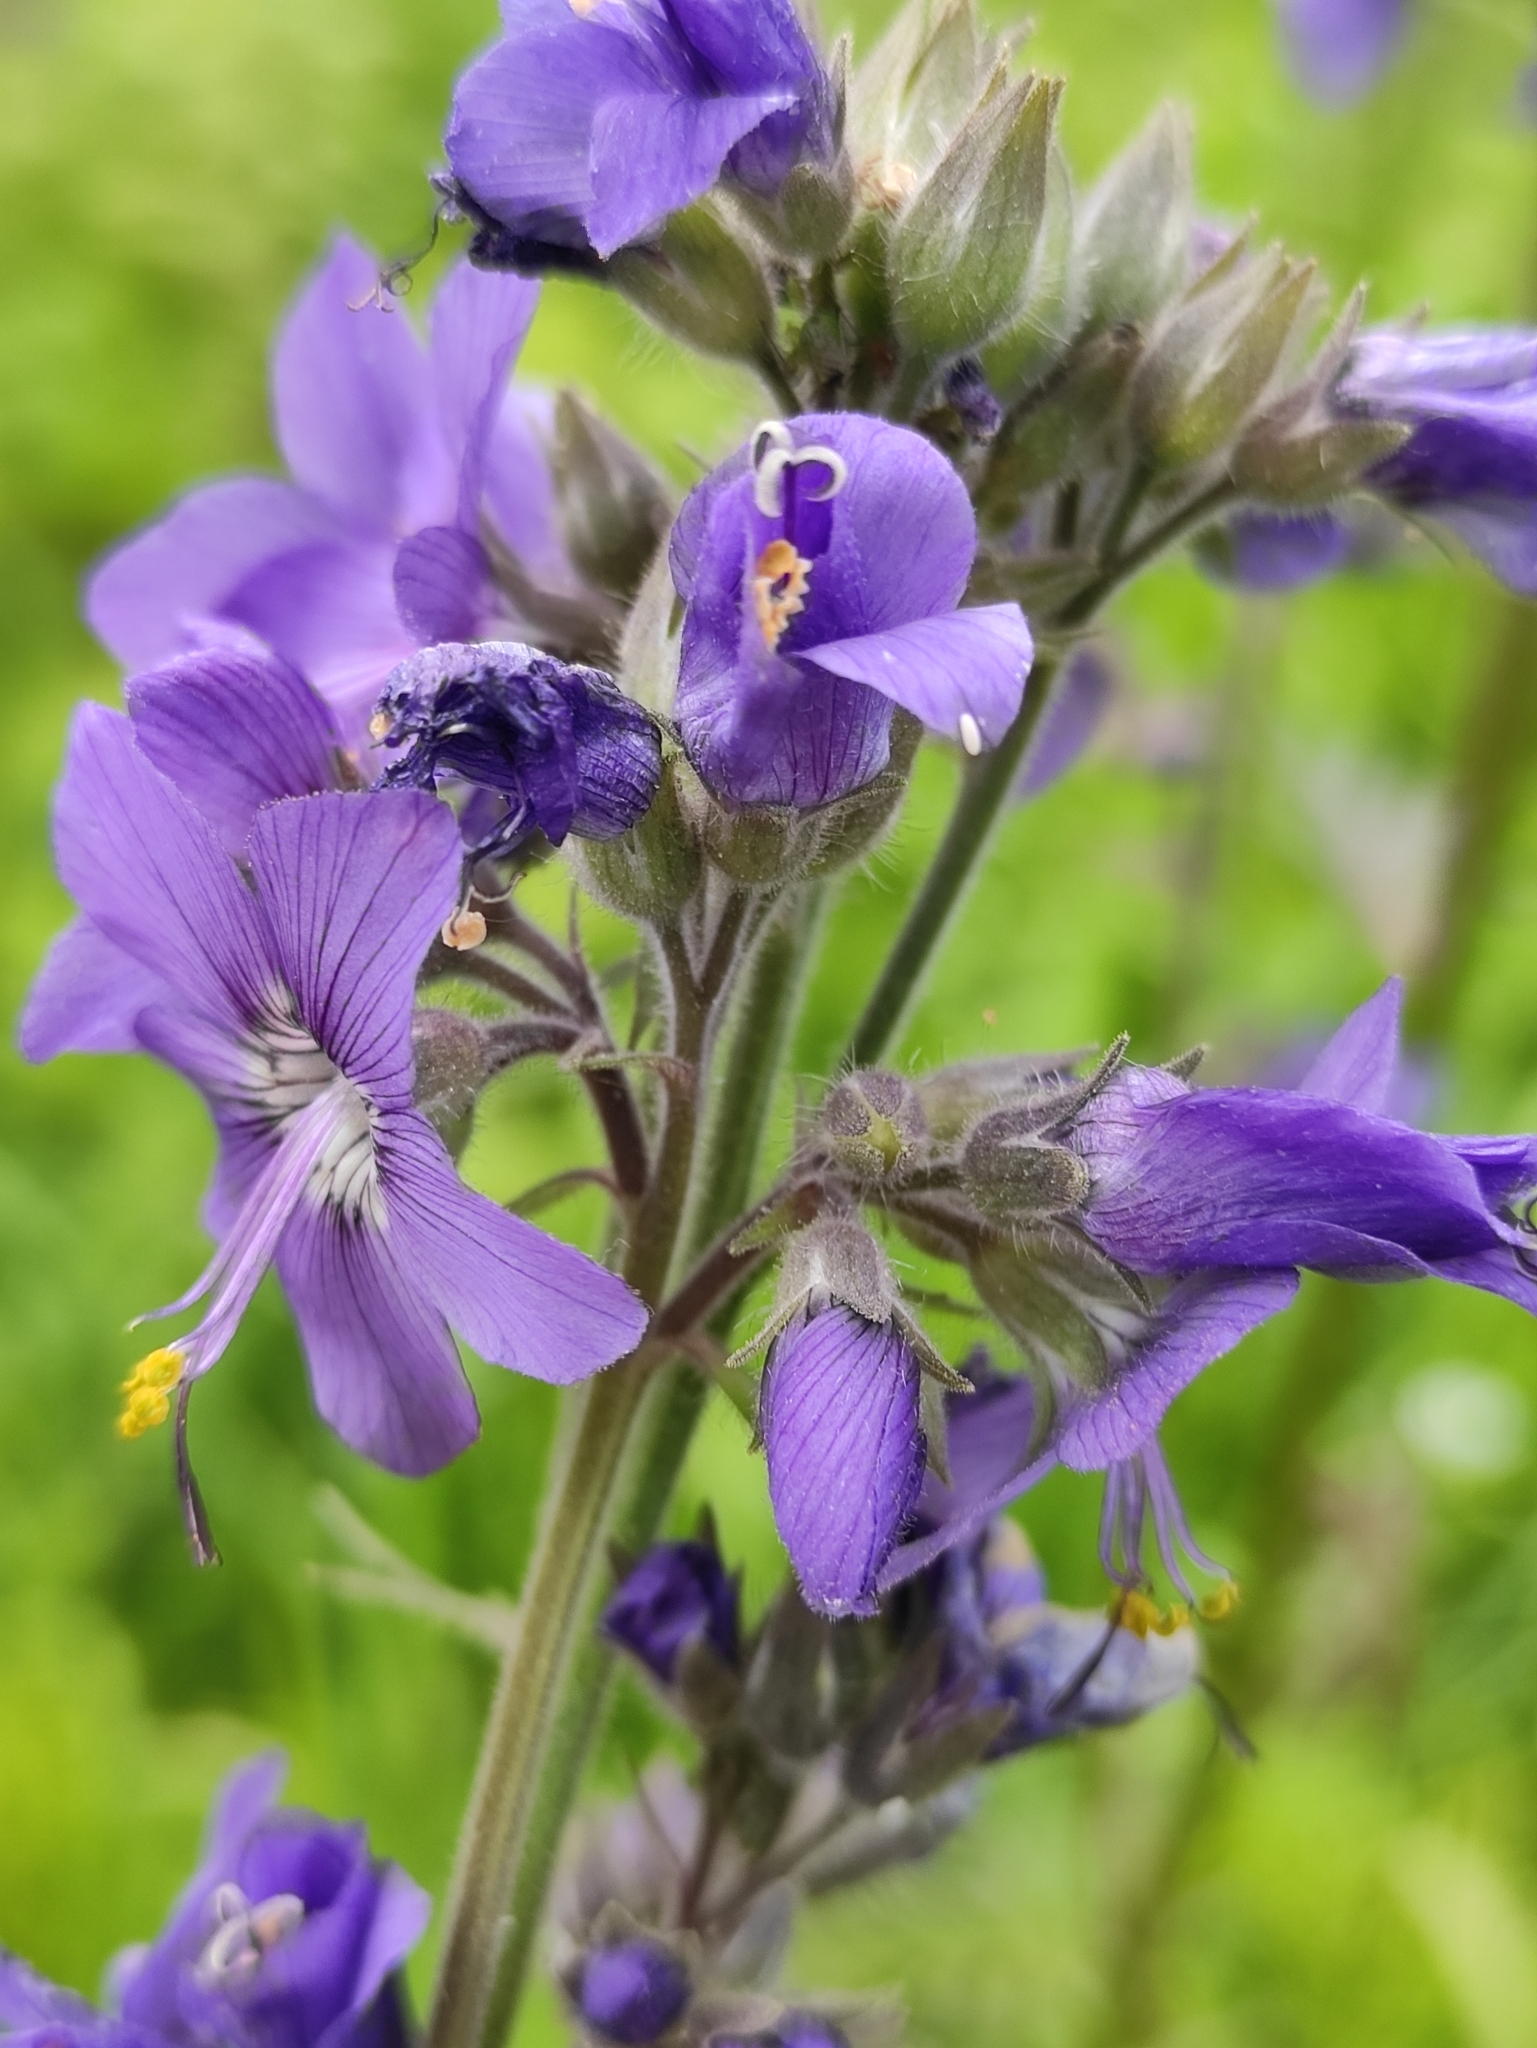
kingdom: Plantae
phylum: Tracheophyta
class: Magnoliopsida
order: Ericales
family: Polemoniaceae
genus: Polemonium
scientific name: Polemonium acutiflorum
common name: Tall jacob's-ladder
